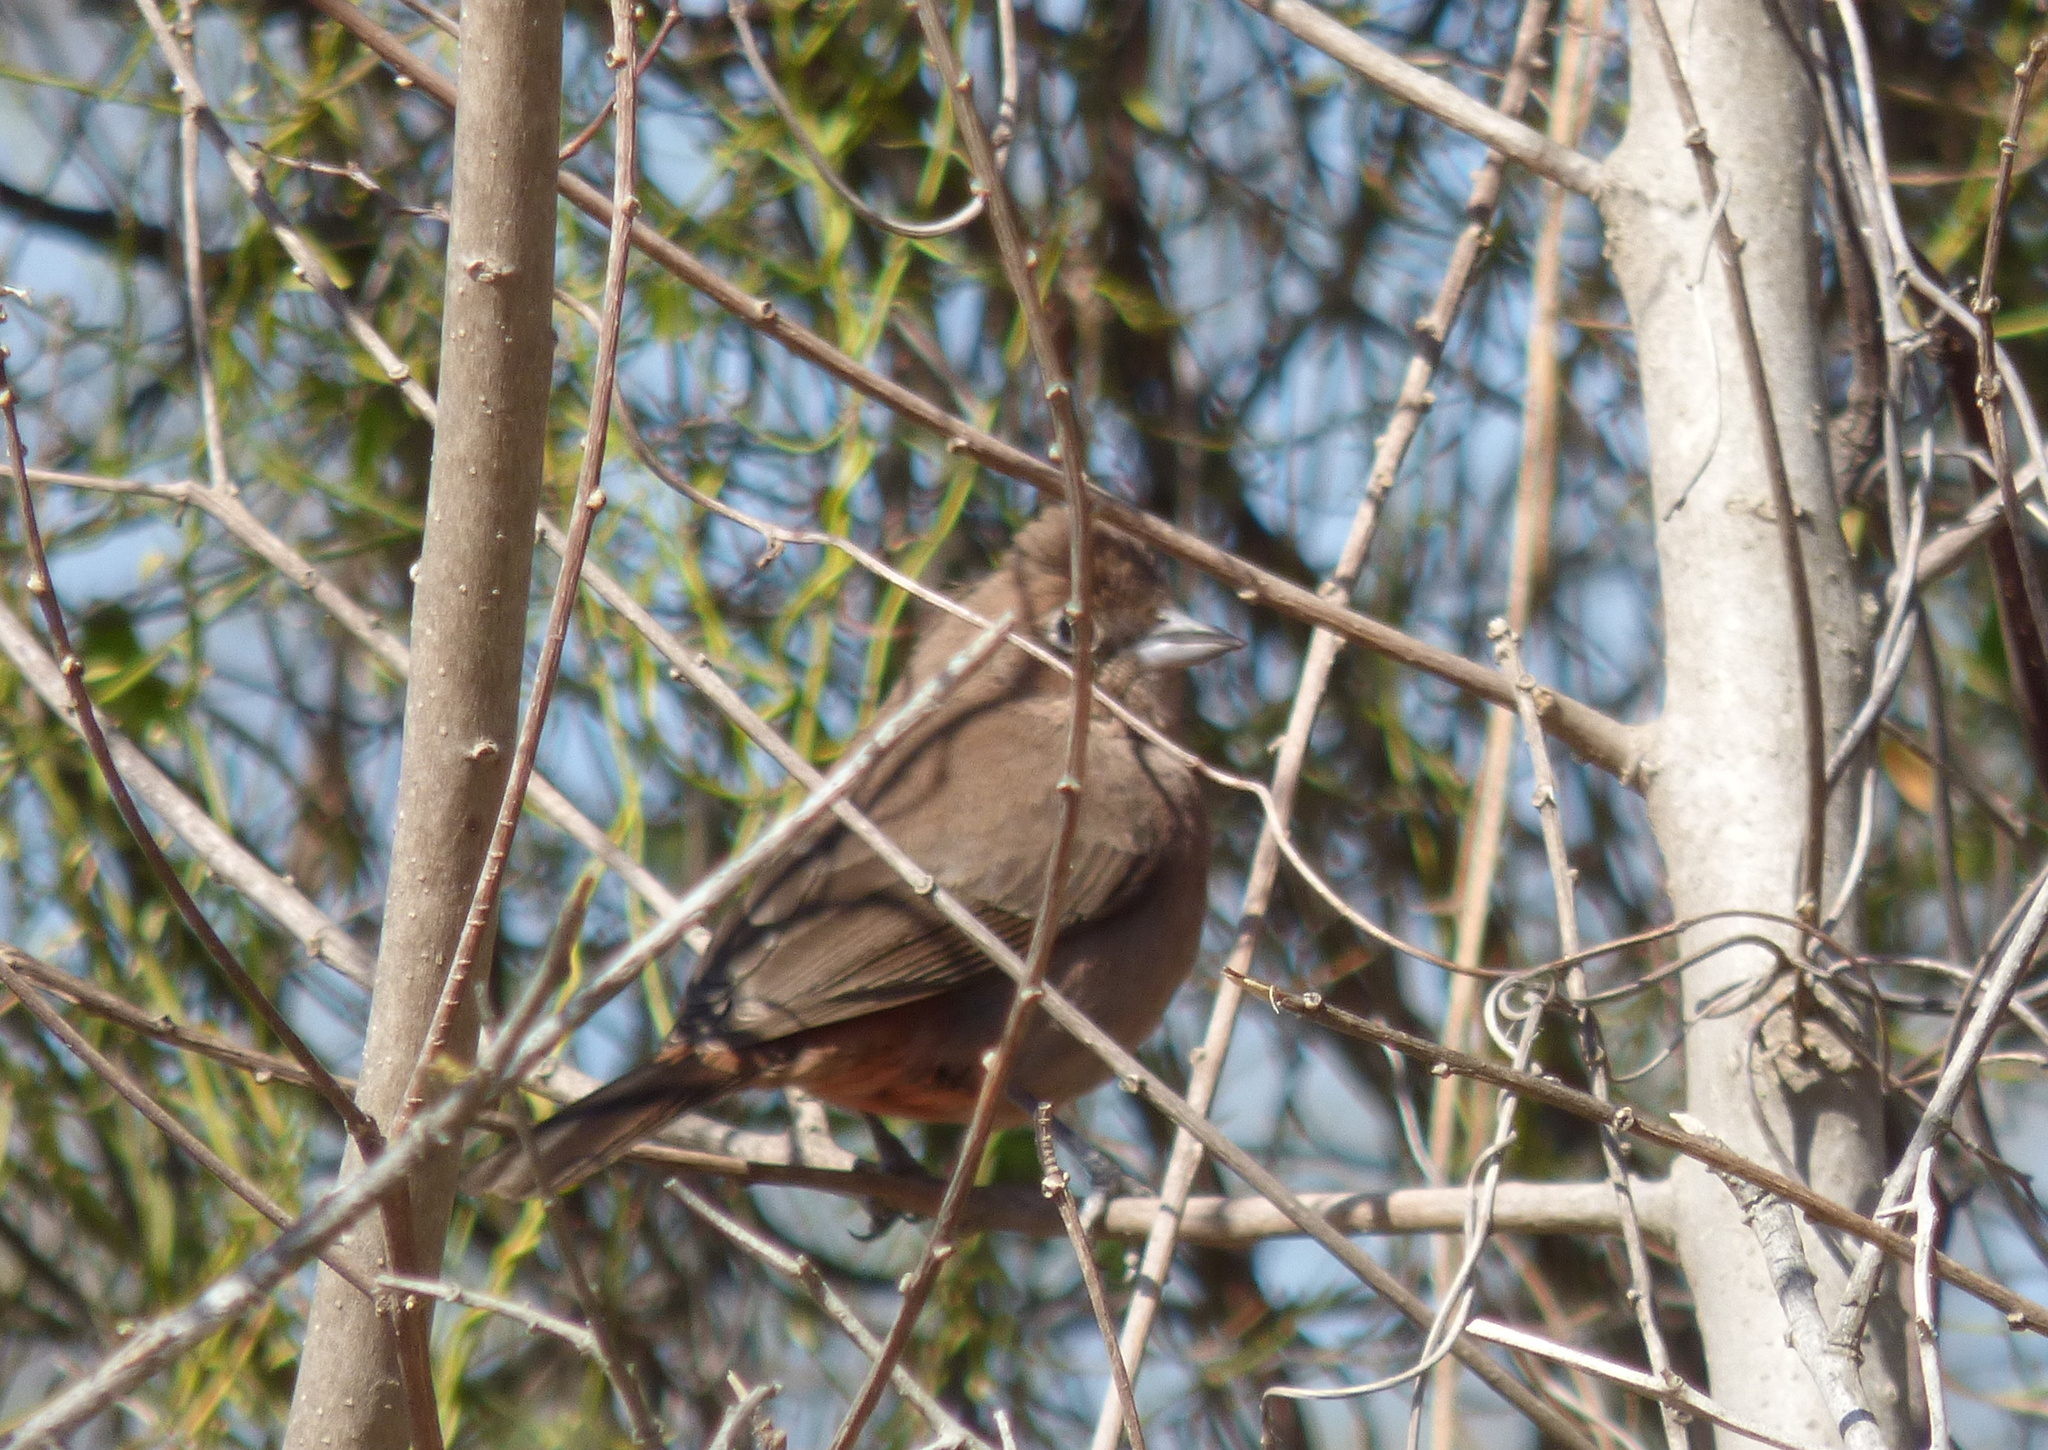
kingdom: Animalia
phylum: Chordata
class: Aves
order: Passeriformes
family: Thraupidae
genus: Coryphospingus
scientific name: Coryphospingus cucullatus
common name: Red pileated finch
